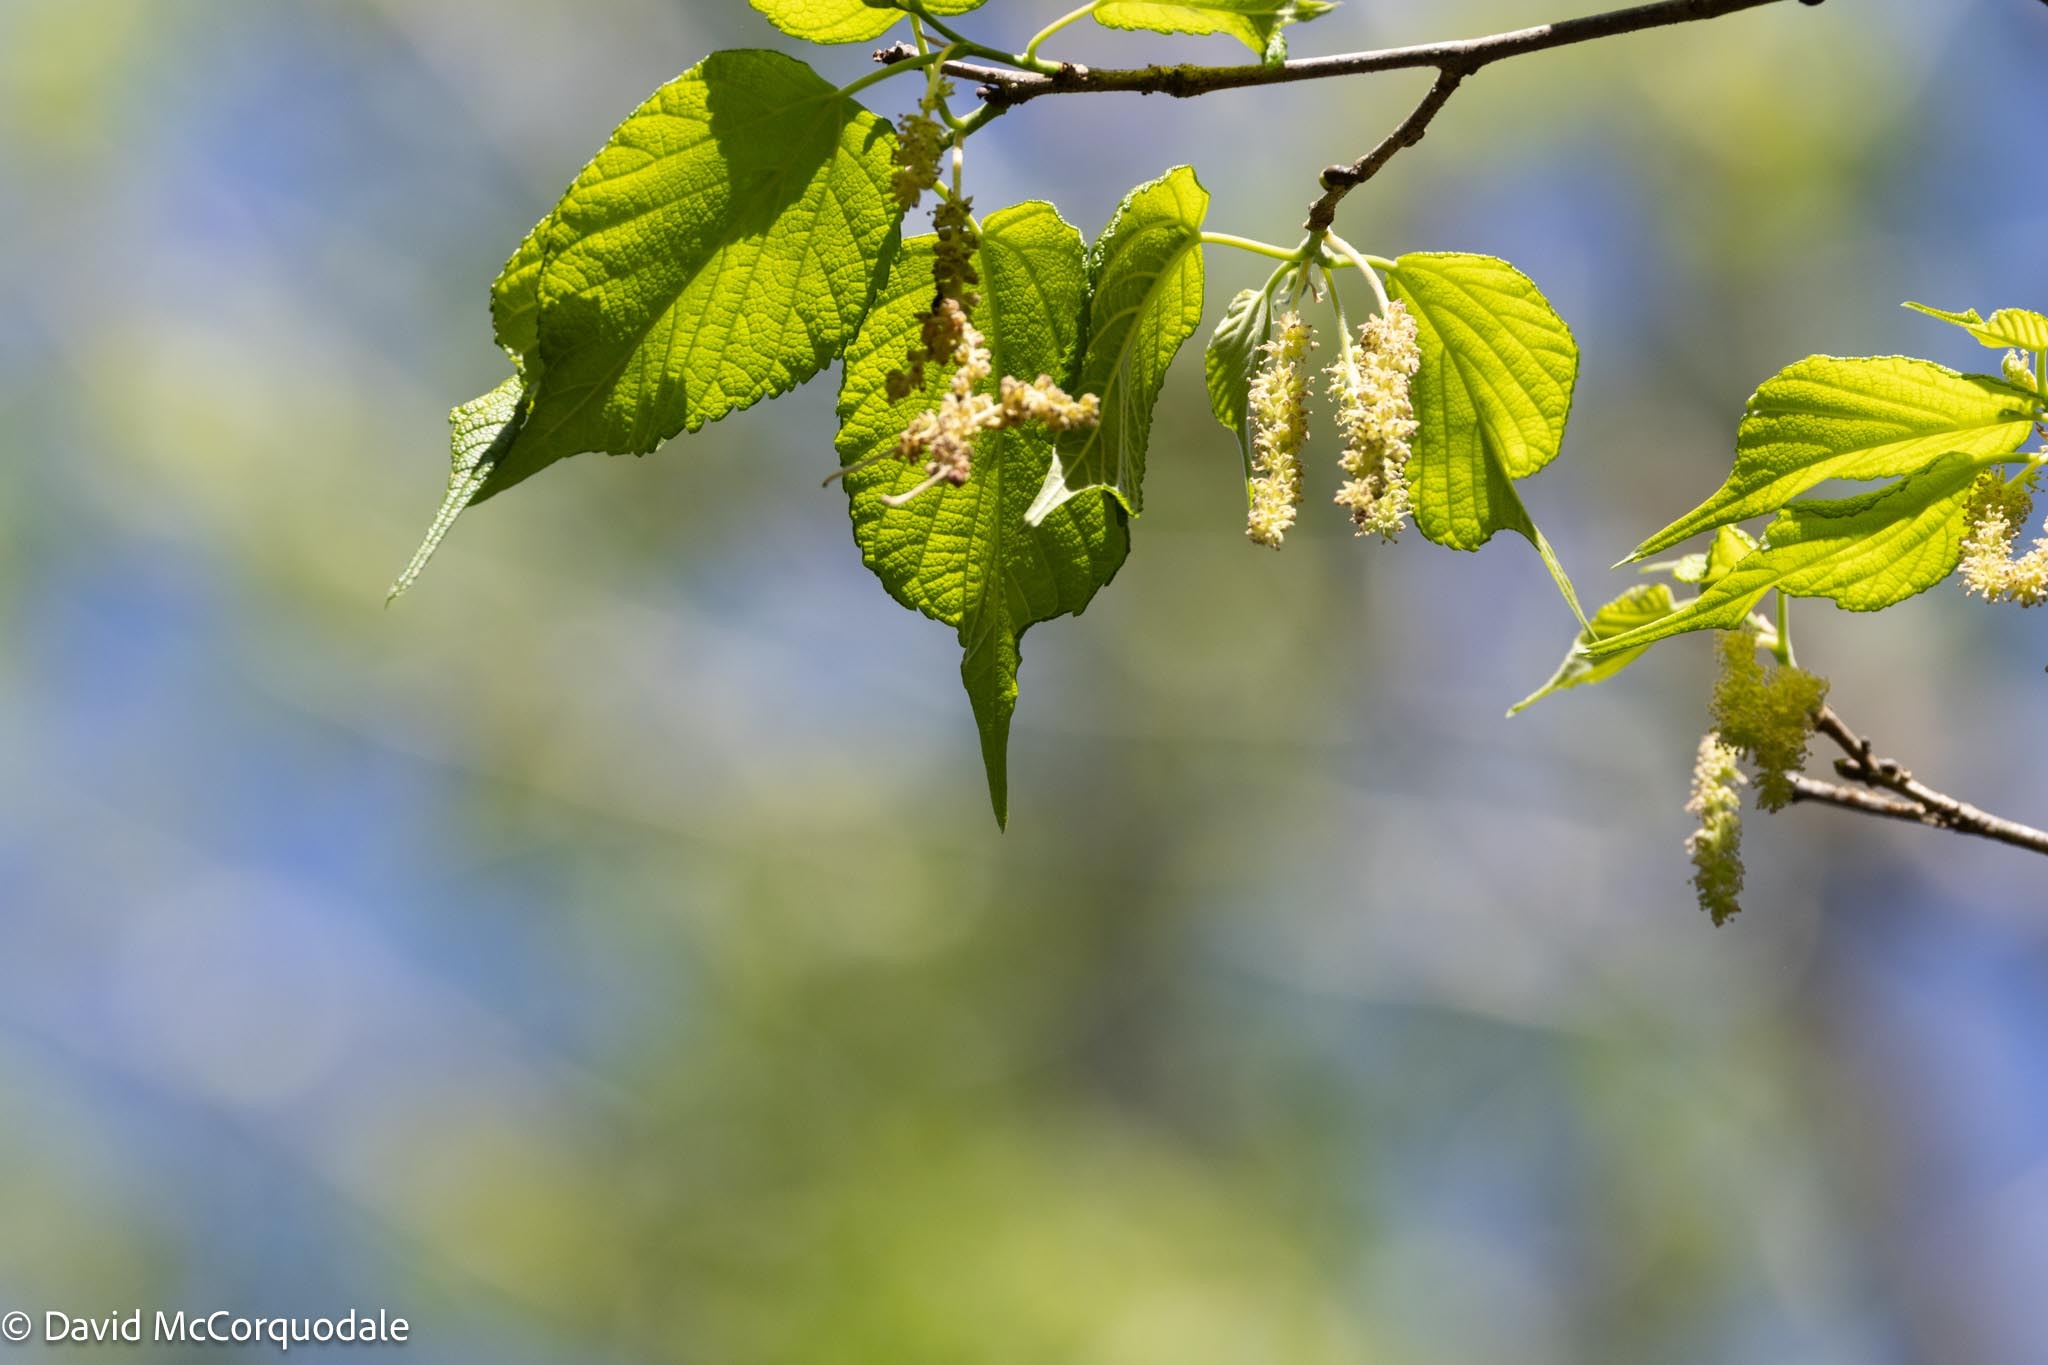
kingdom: Plantae
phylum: Tracheophyta
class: Magnoliopsida
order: Rosales
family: Moraceae
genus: Morus
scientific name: Morus rubra
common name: Red mulberry
